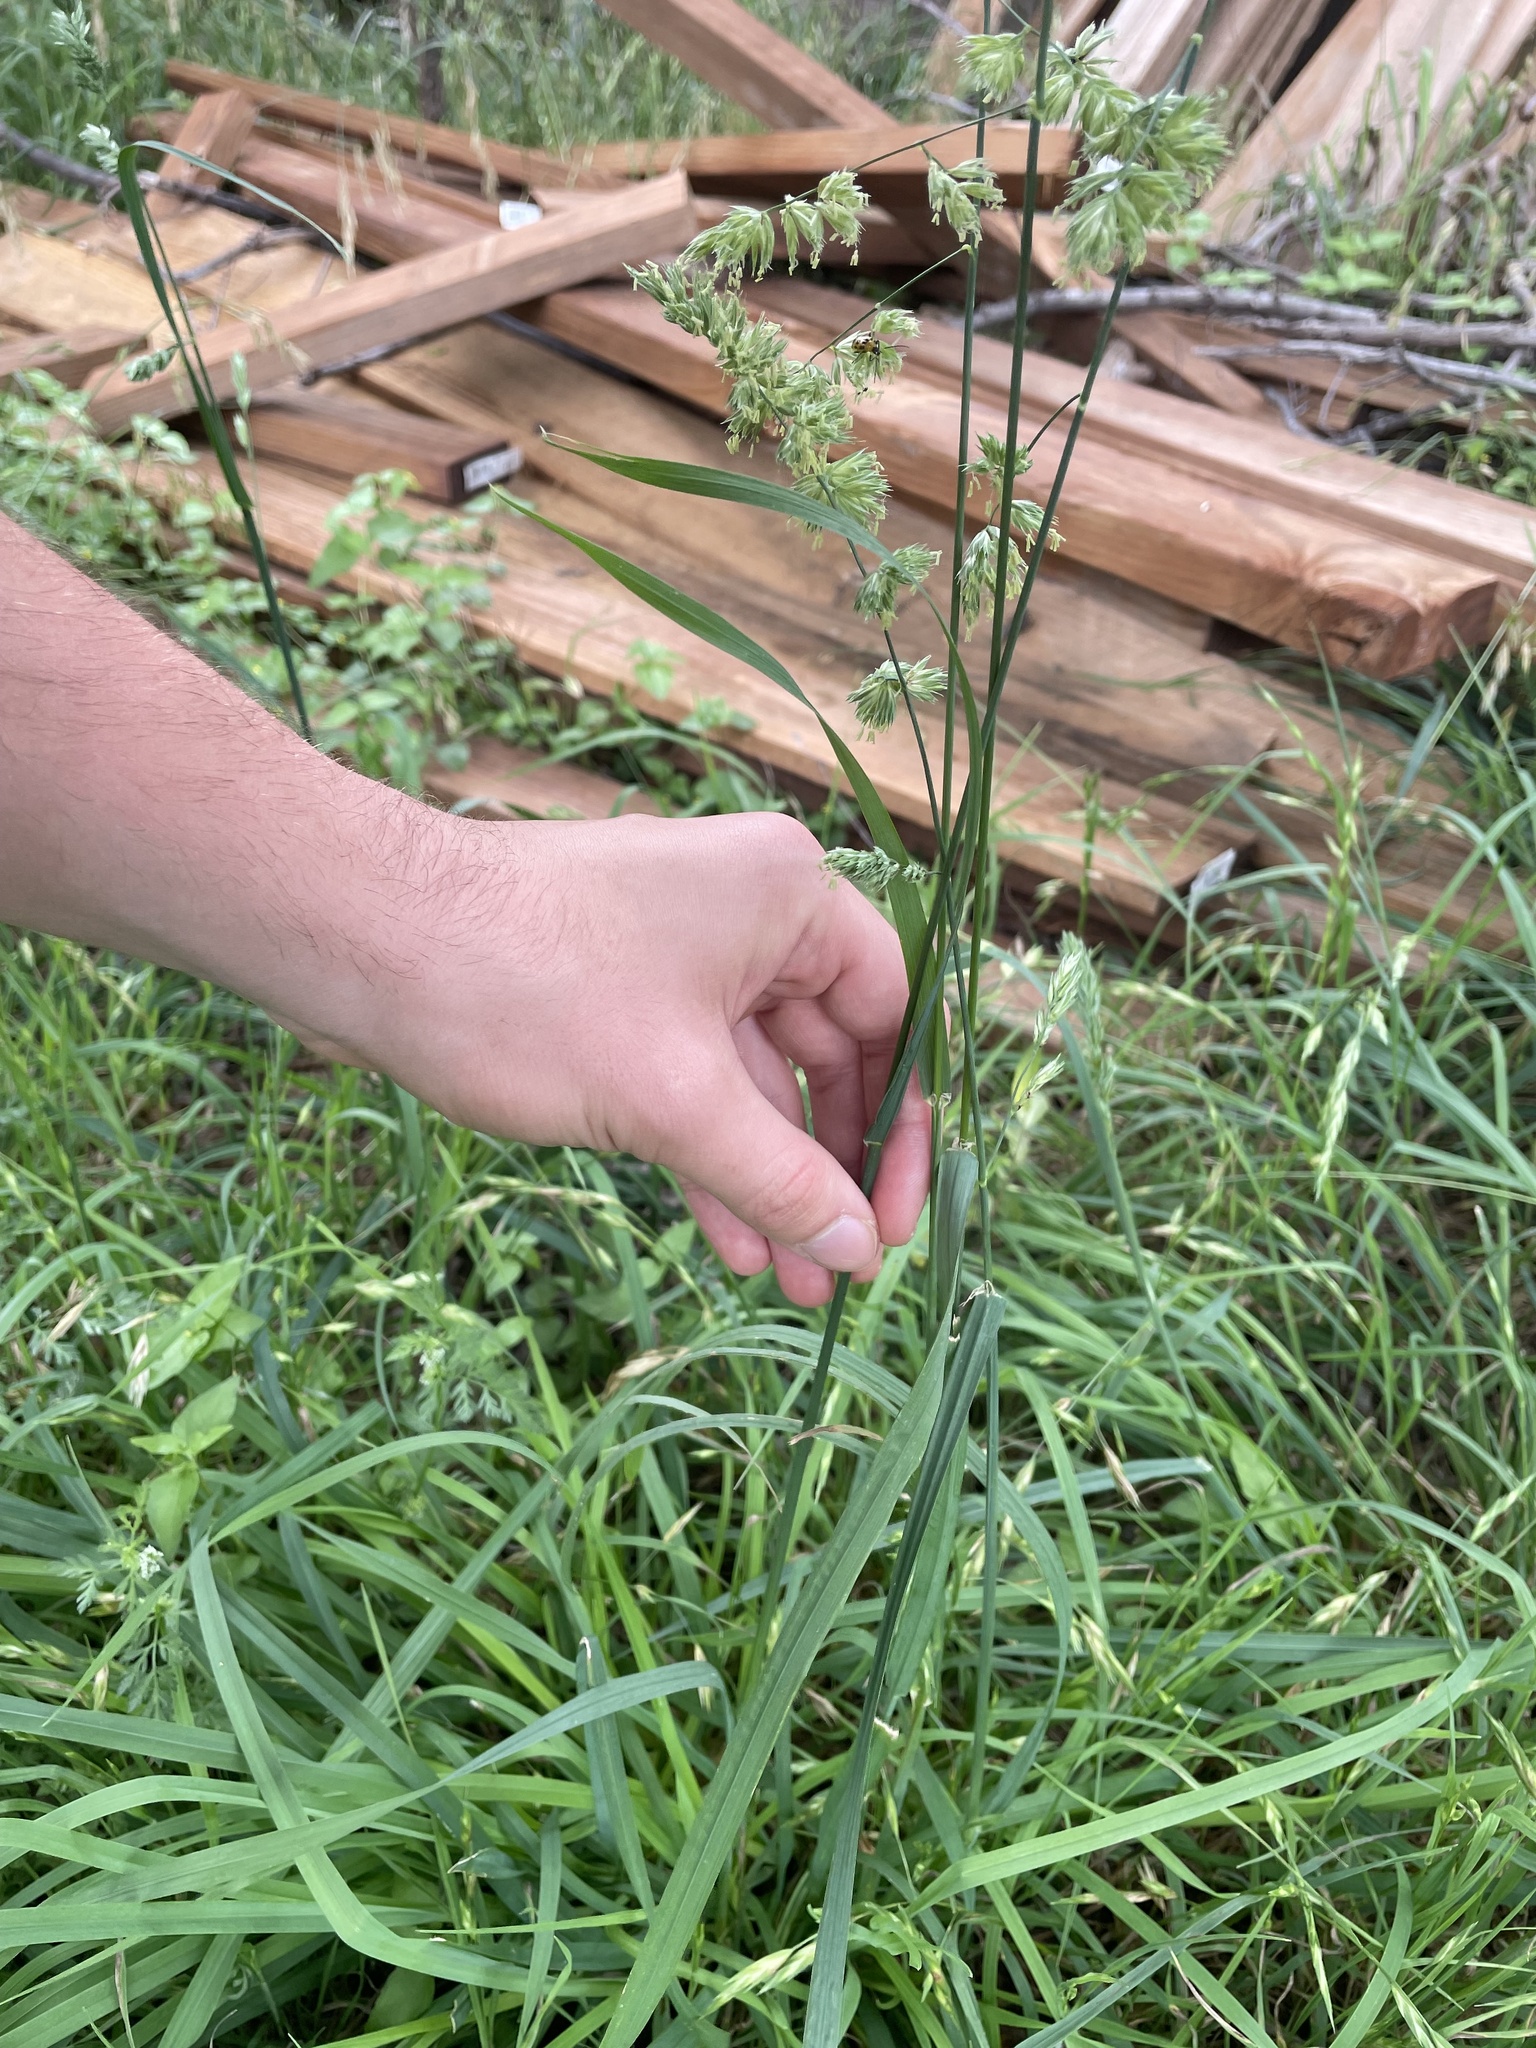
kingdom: Plantae
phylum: Tracheophyta
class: Liliopsida
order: Poales
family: Poaceae
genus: Dactylis
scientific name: Dactylis glomerata
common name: Orchardgrass
